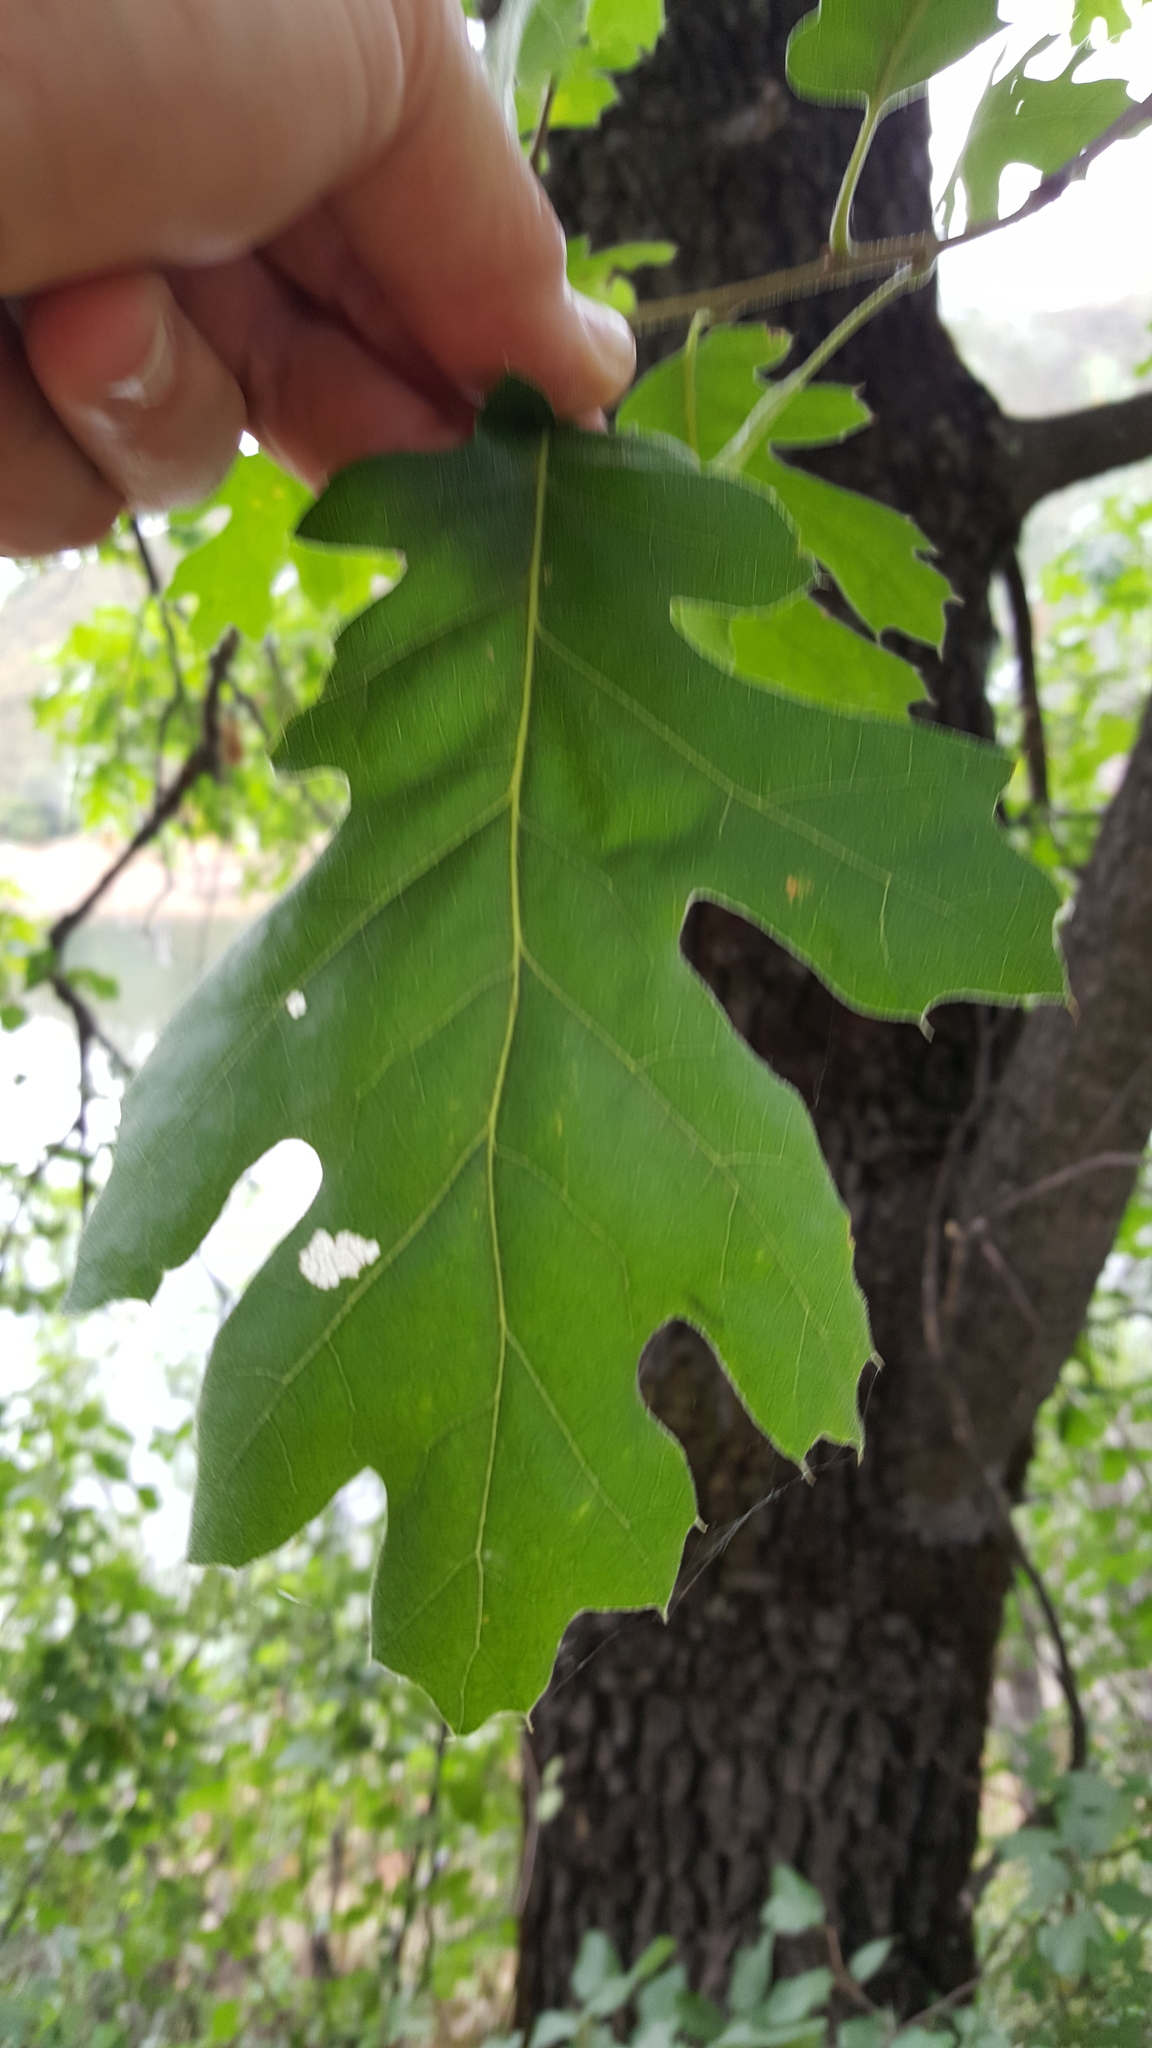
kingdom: Plantae
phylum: Tracheophyta
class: Magnoliopsida
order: Fagales
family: Fagaceae
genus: Quercus
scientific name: Quercus kelloggii
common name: California black oak
